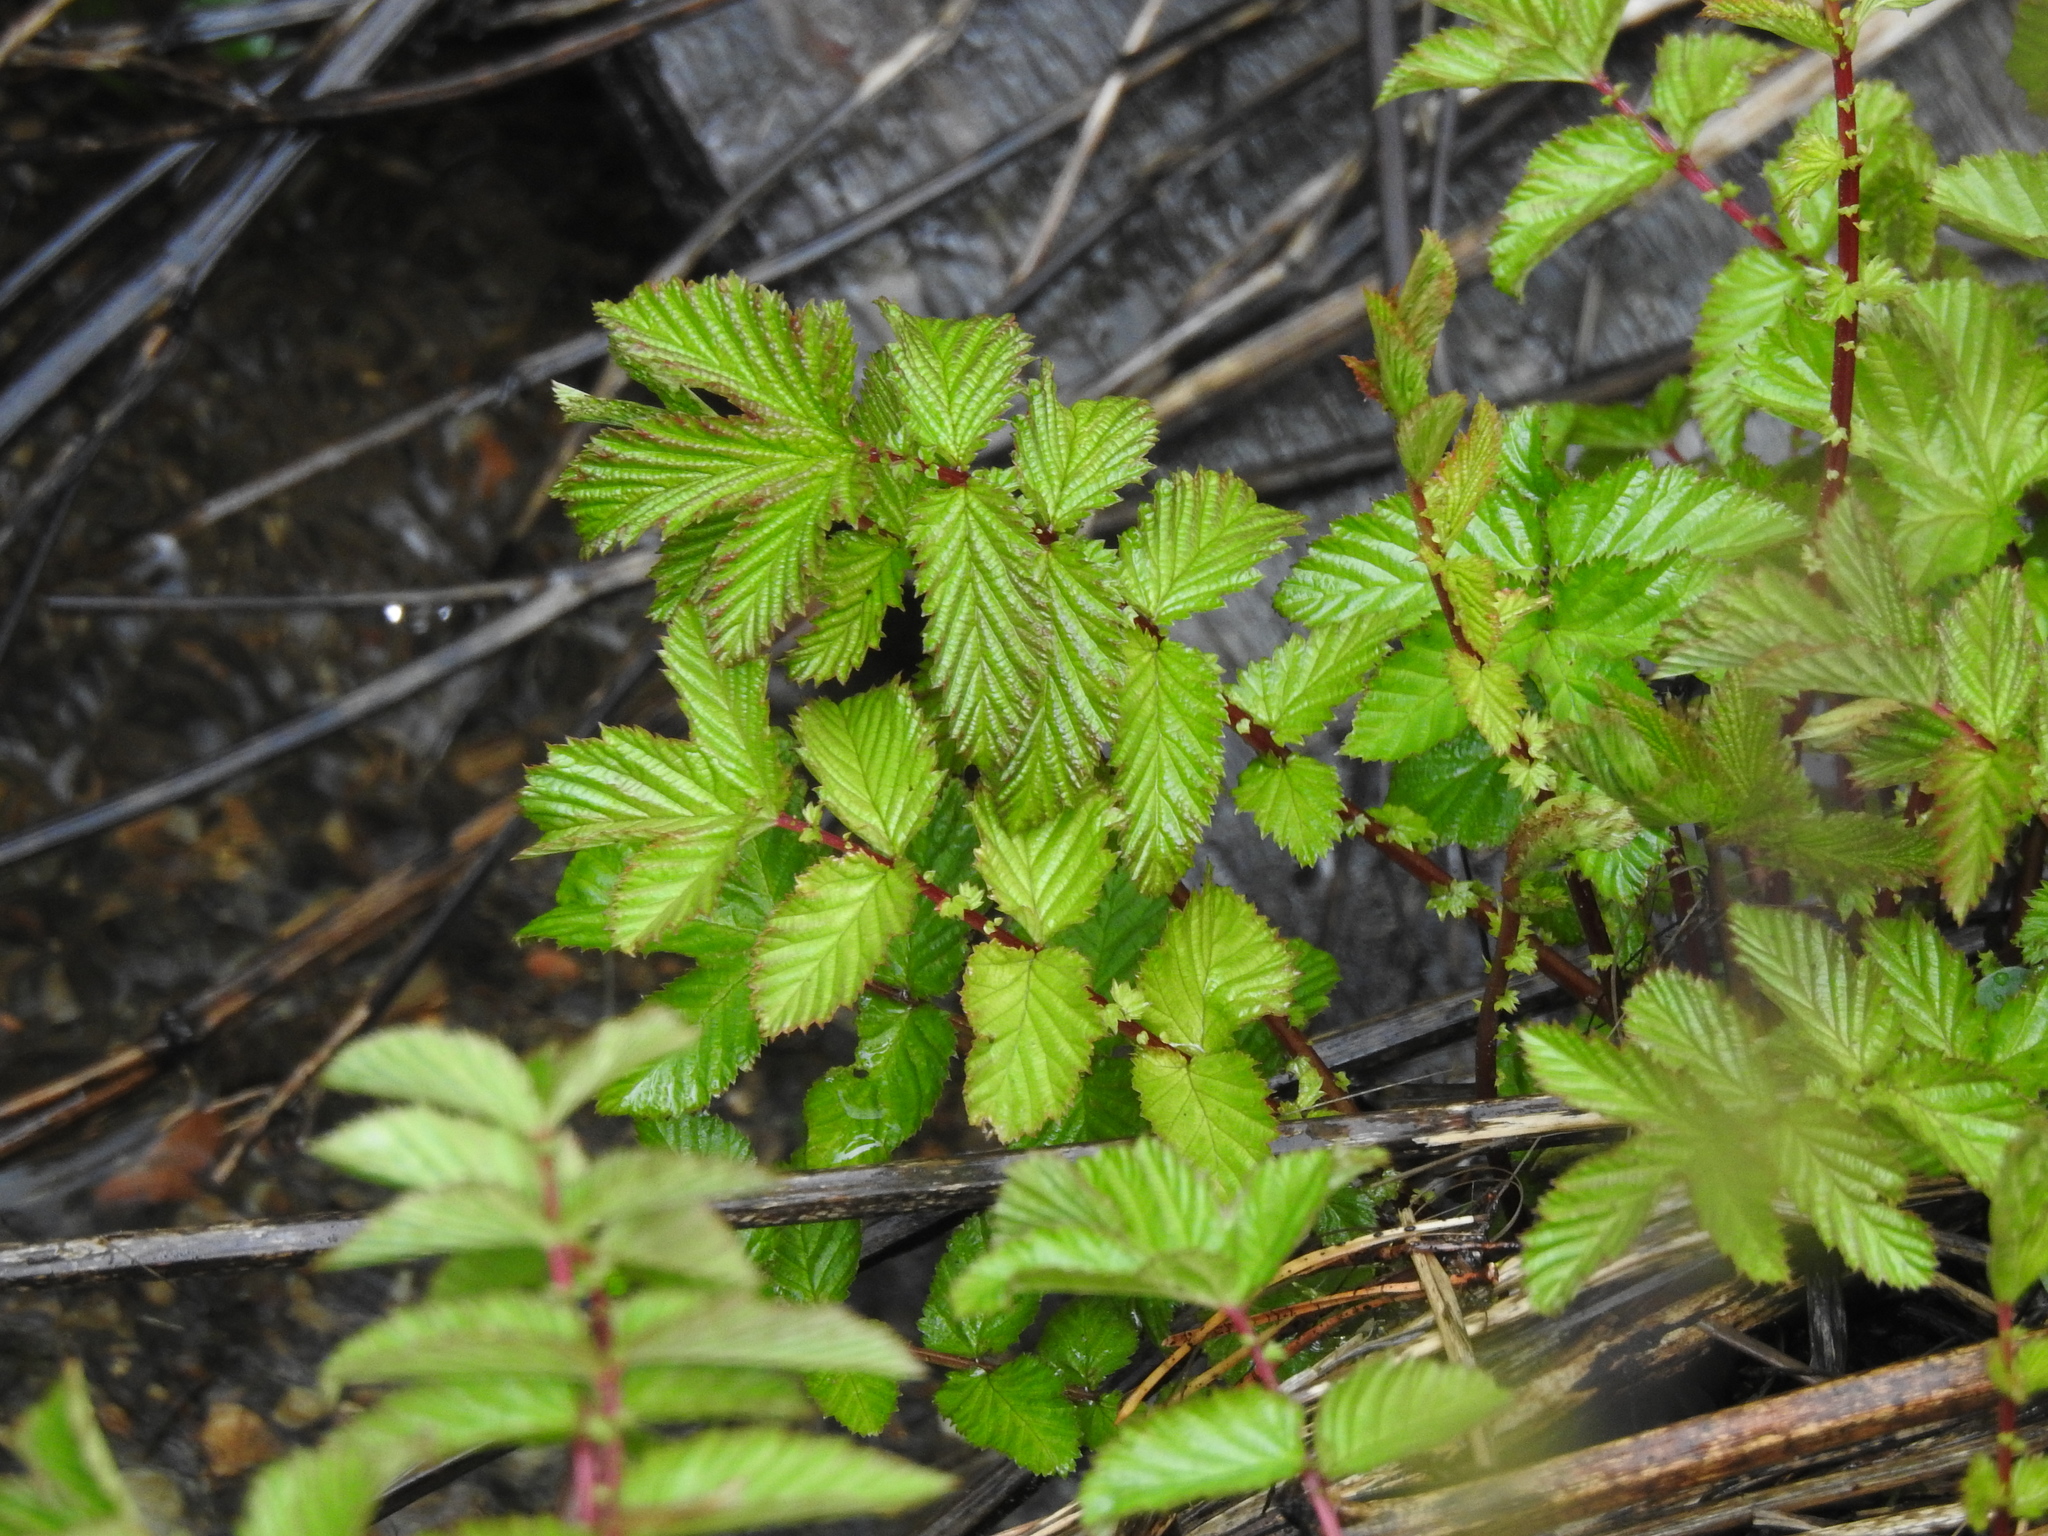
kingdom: Plantae
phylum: Tracheophyta
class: Magnoliopsida
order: Rosales
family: Rosaceae
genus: Filipendula
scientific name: Filipendula ulmaria
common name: Meadowsweet
